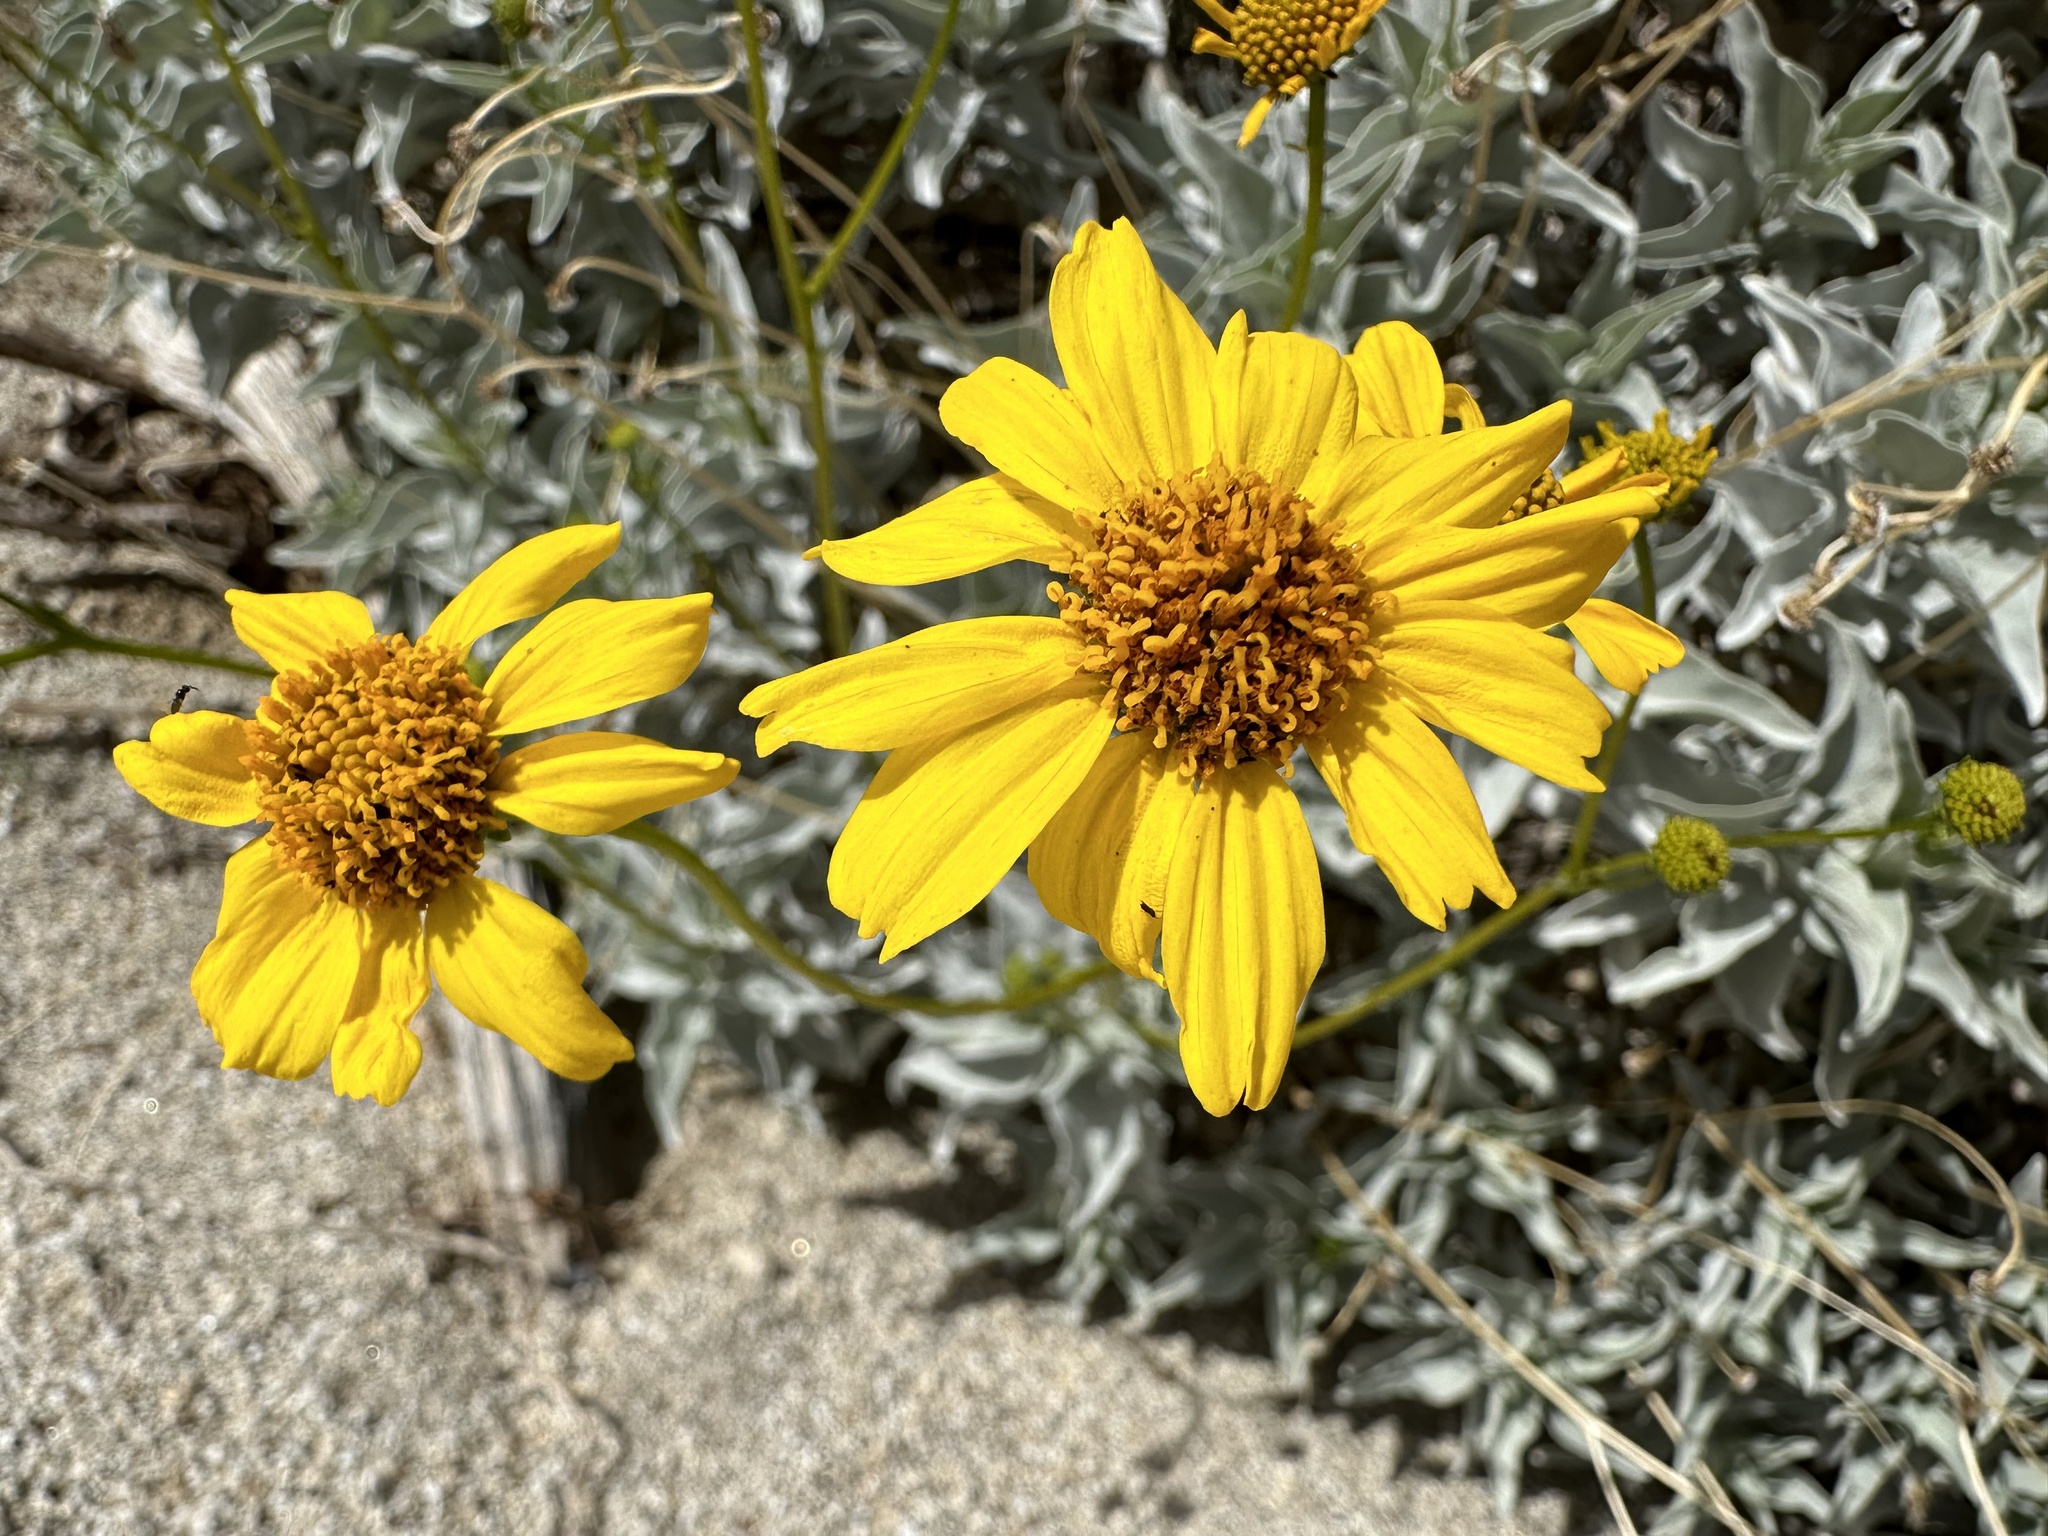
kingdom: Plantae
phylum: Tracheophyta
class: Magnoliopsida
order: Asterales
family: Asteraceae
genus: Encelia
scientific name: Encelia farinosa
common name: Brittlebush
